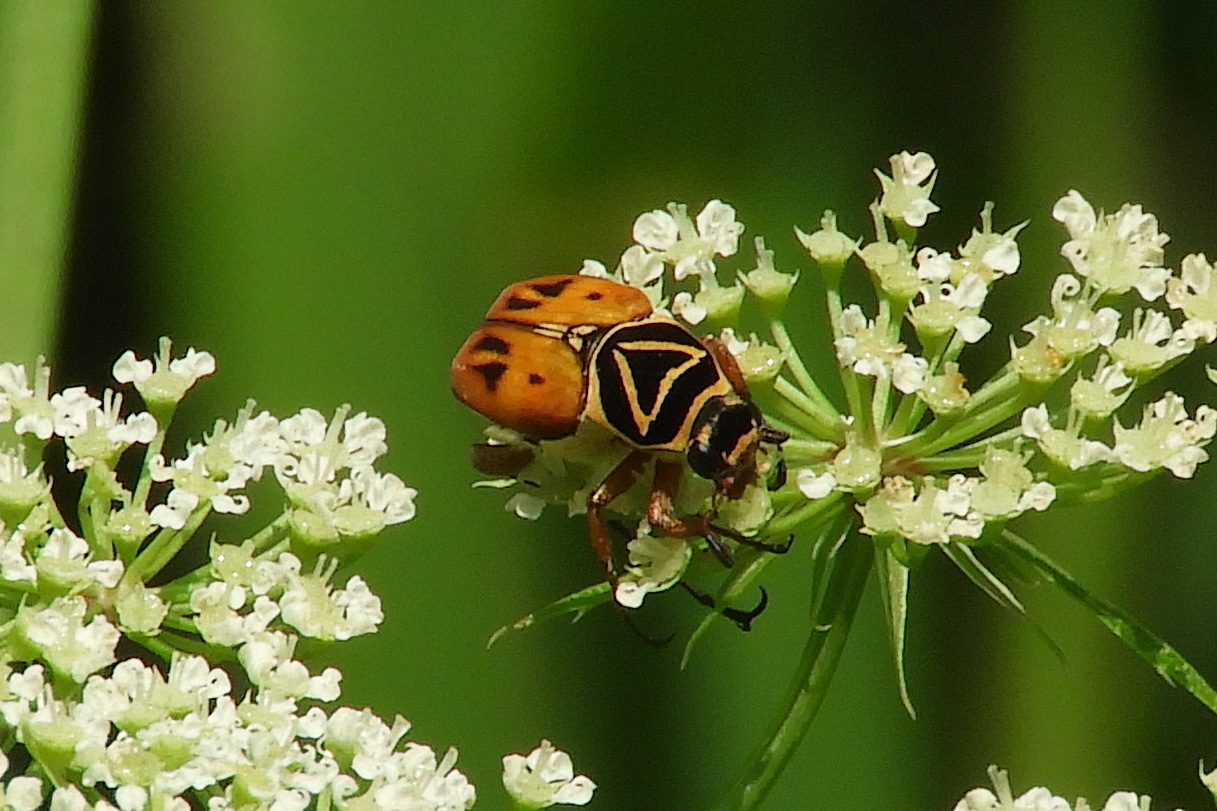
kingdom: Animalia
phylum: Arthropoda
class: Insecta
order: Coleoptera
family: Scarabaeidae
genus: Trigonopeltastes
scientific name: Trigonopeltastes delta
